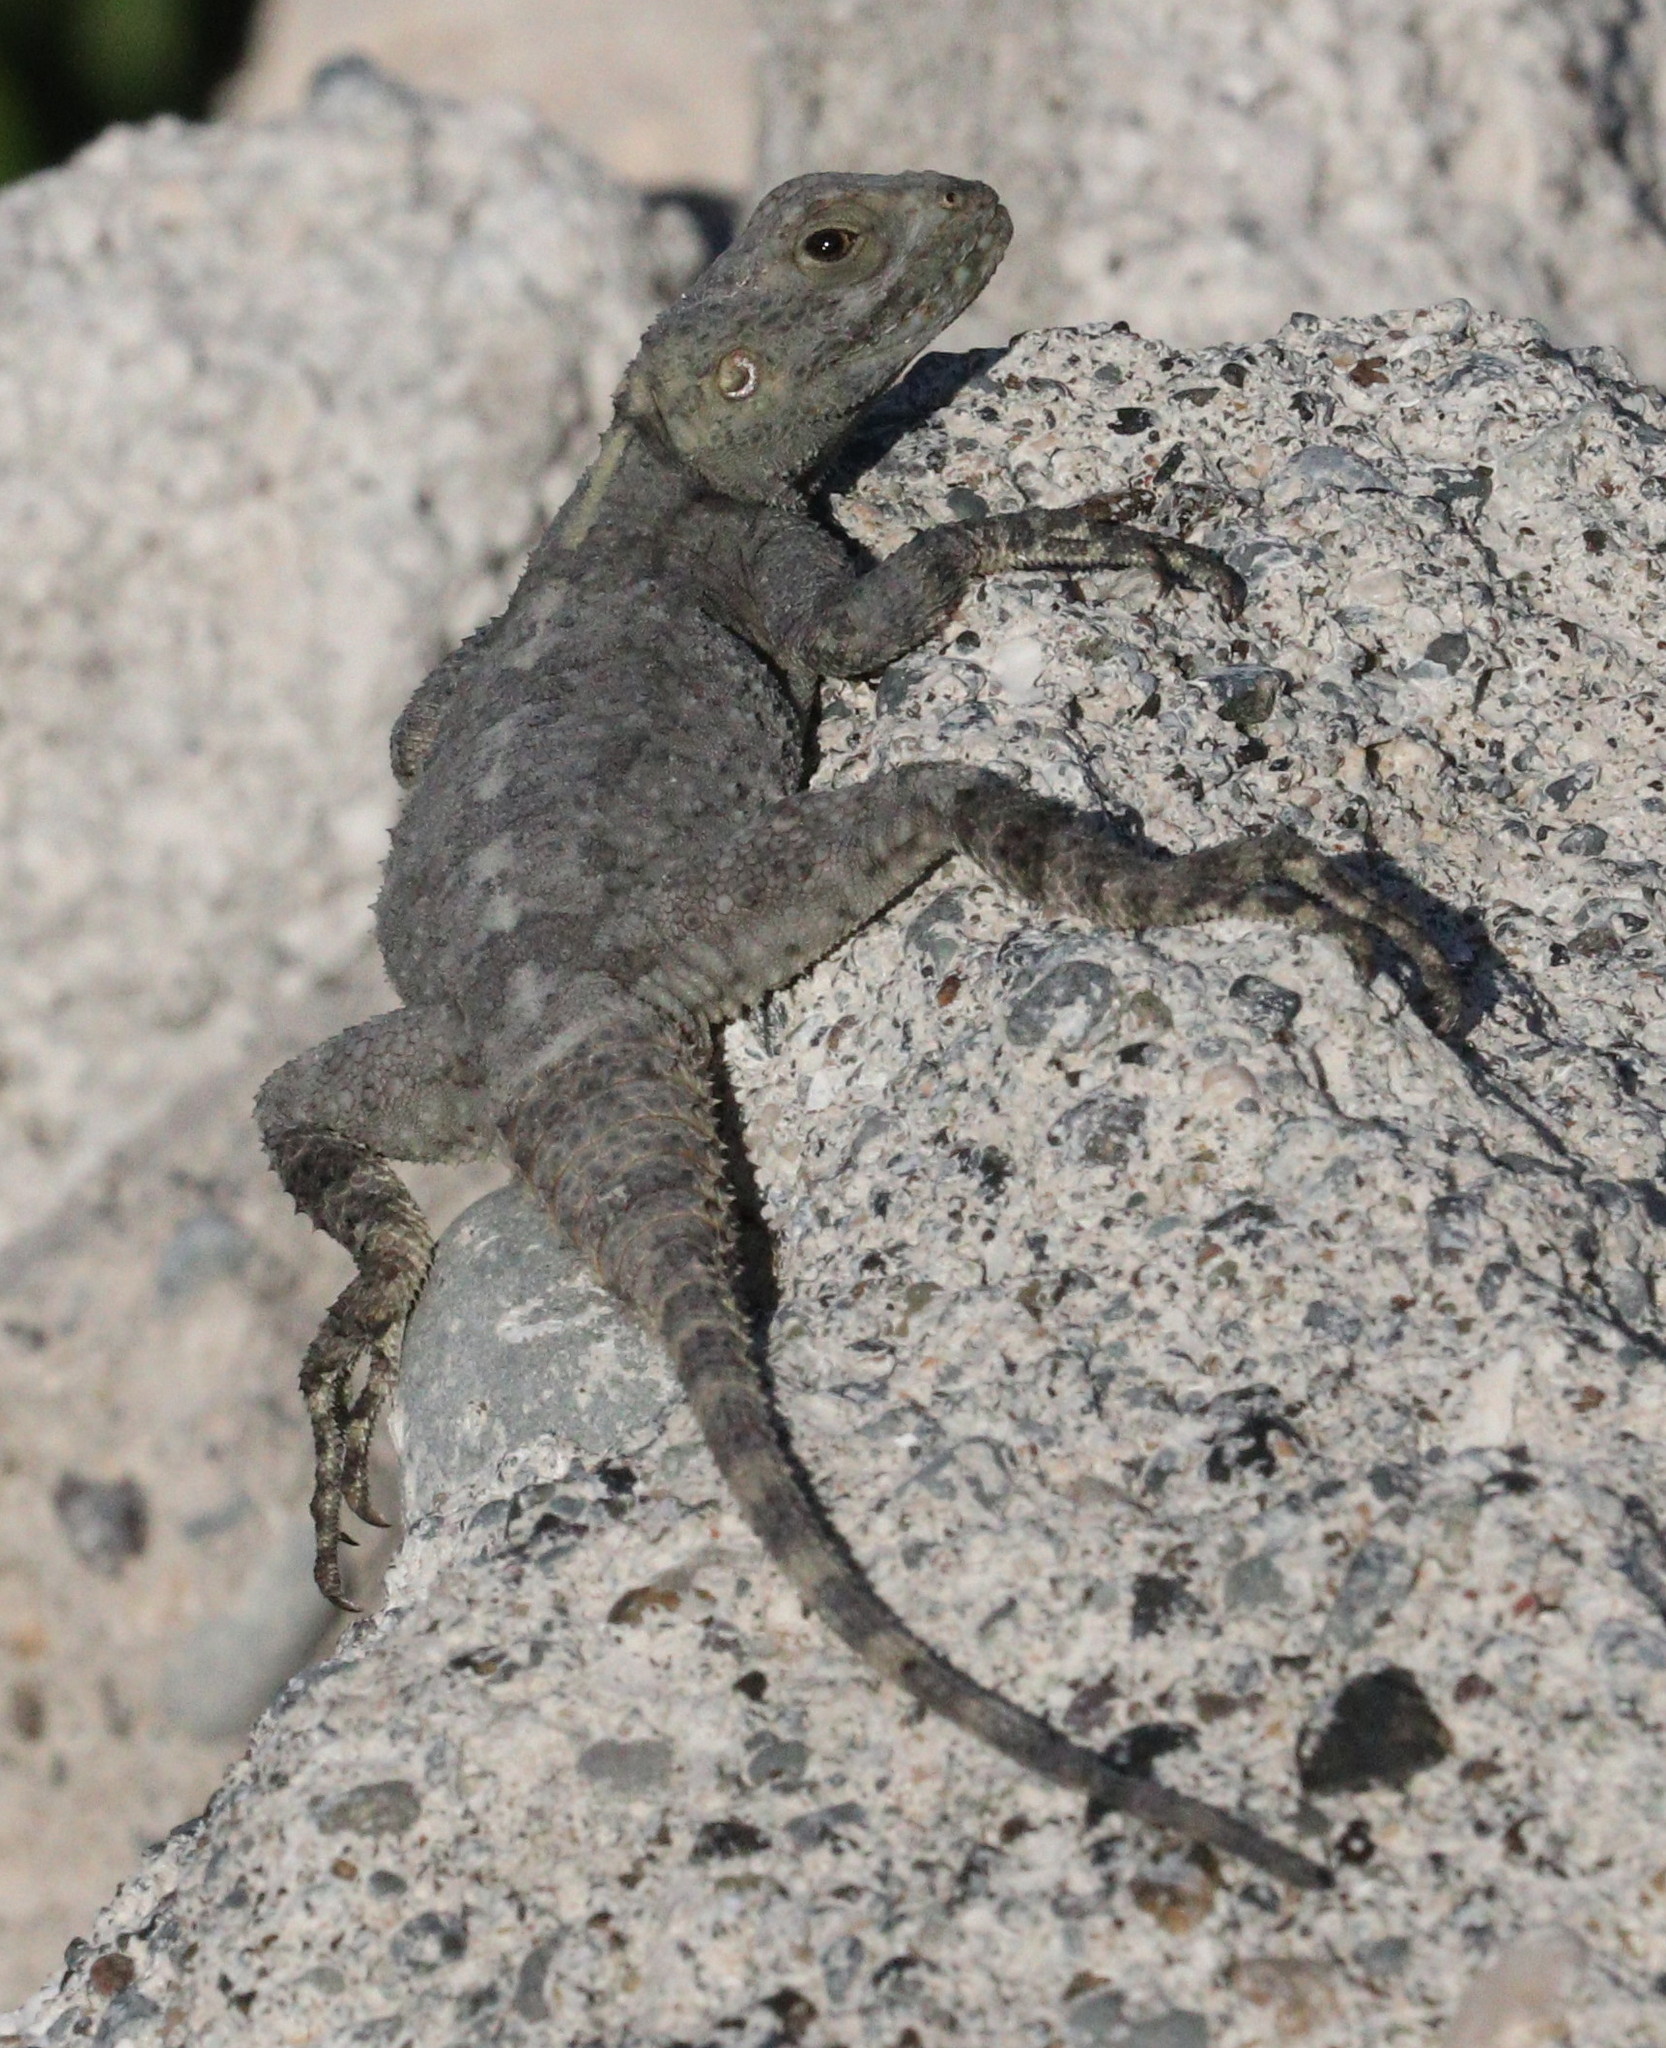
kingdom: Animalia
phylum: Chordata
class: Squamata
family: Agamidae
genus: Stellagama
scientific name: Stellagama stellio
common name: Starred agama
